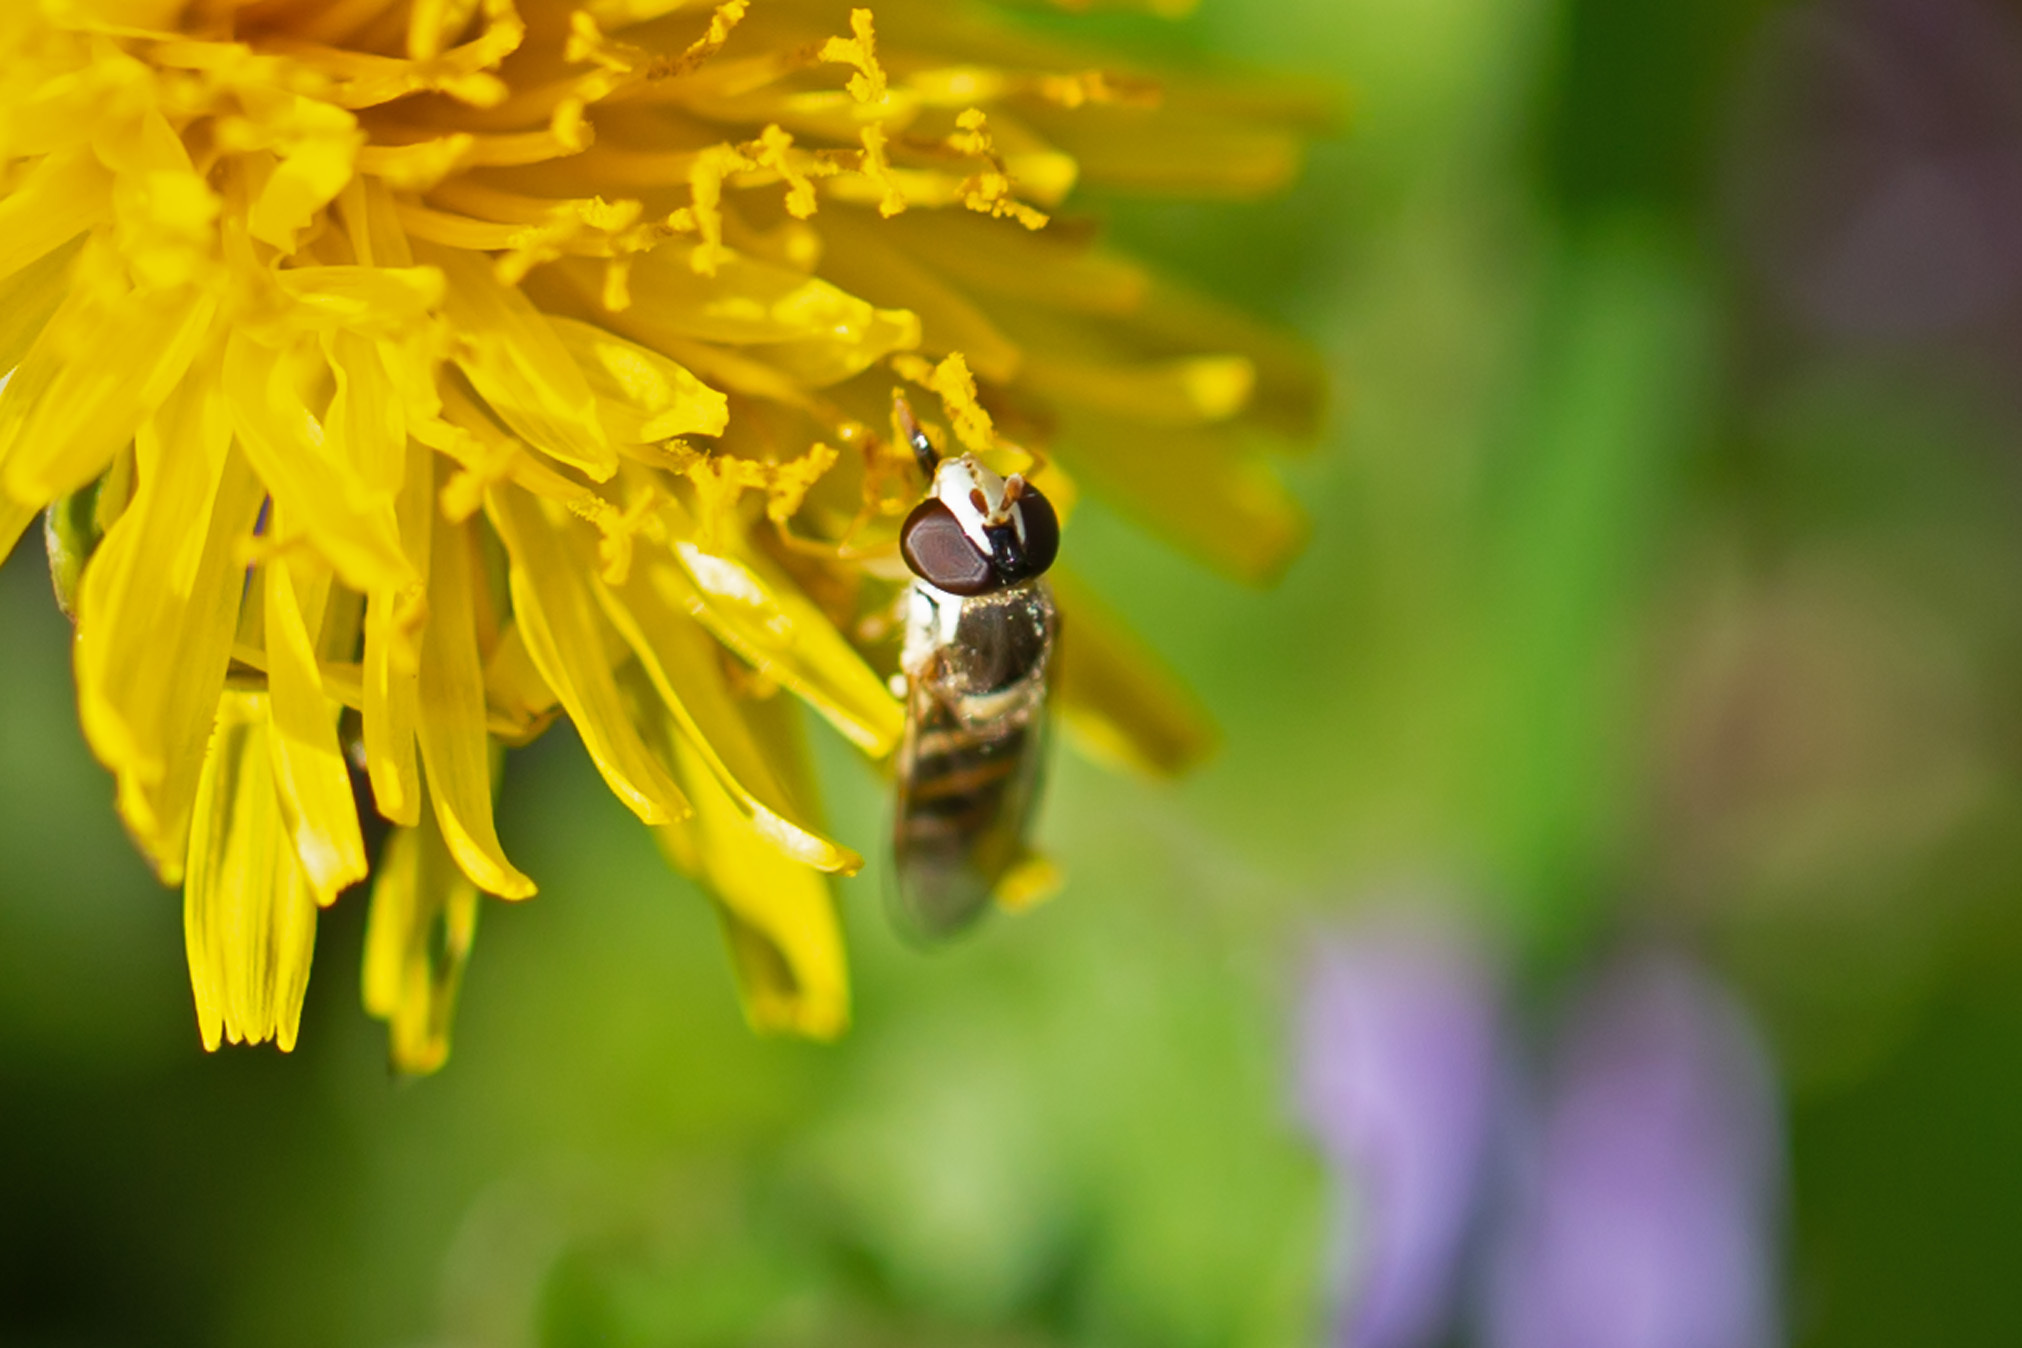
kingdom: Animalia
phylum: Arthropoda
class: Insecta
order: Diptera
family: Syrphidae
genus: Sphaerophoria
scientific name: Sphaerophoria contigua
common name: Tufted globetail
